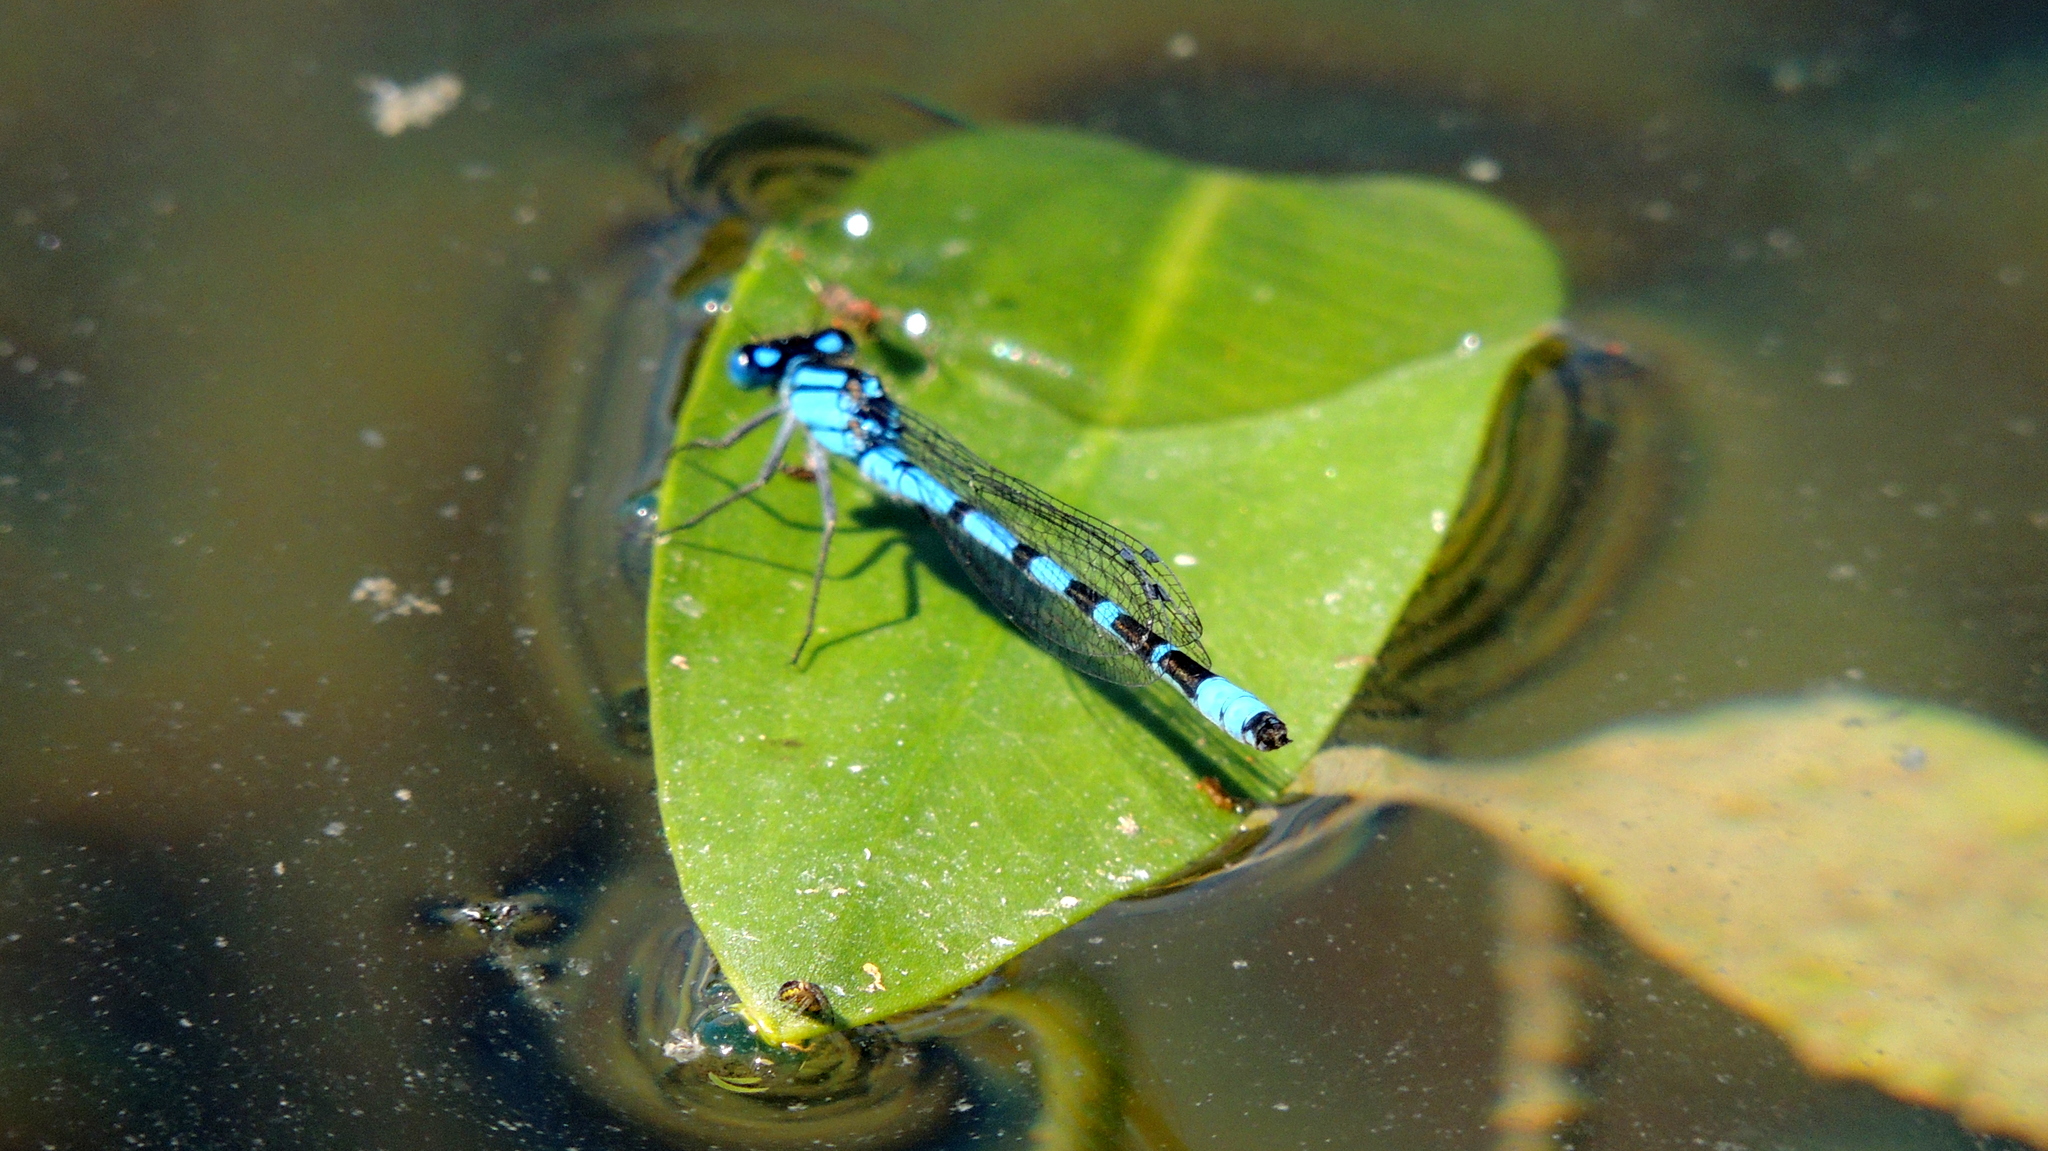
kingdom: Animalia
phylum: Arthropoda
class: Insecta
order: Odonata
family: Coenagrionidae
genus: Enallagma
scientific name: Enallagma cyathigerum
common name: Common blue damselfly
